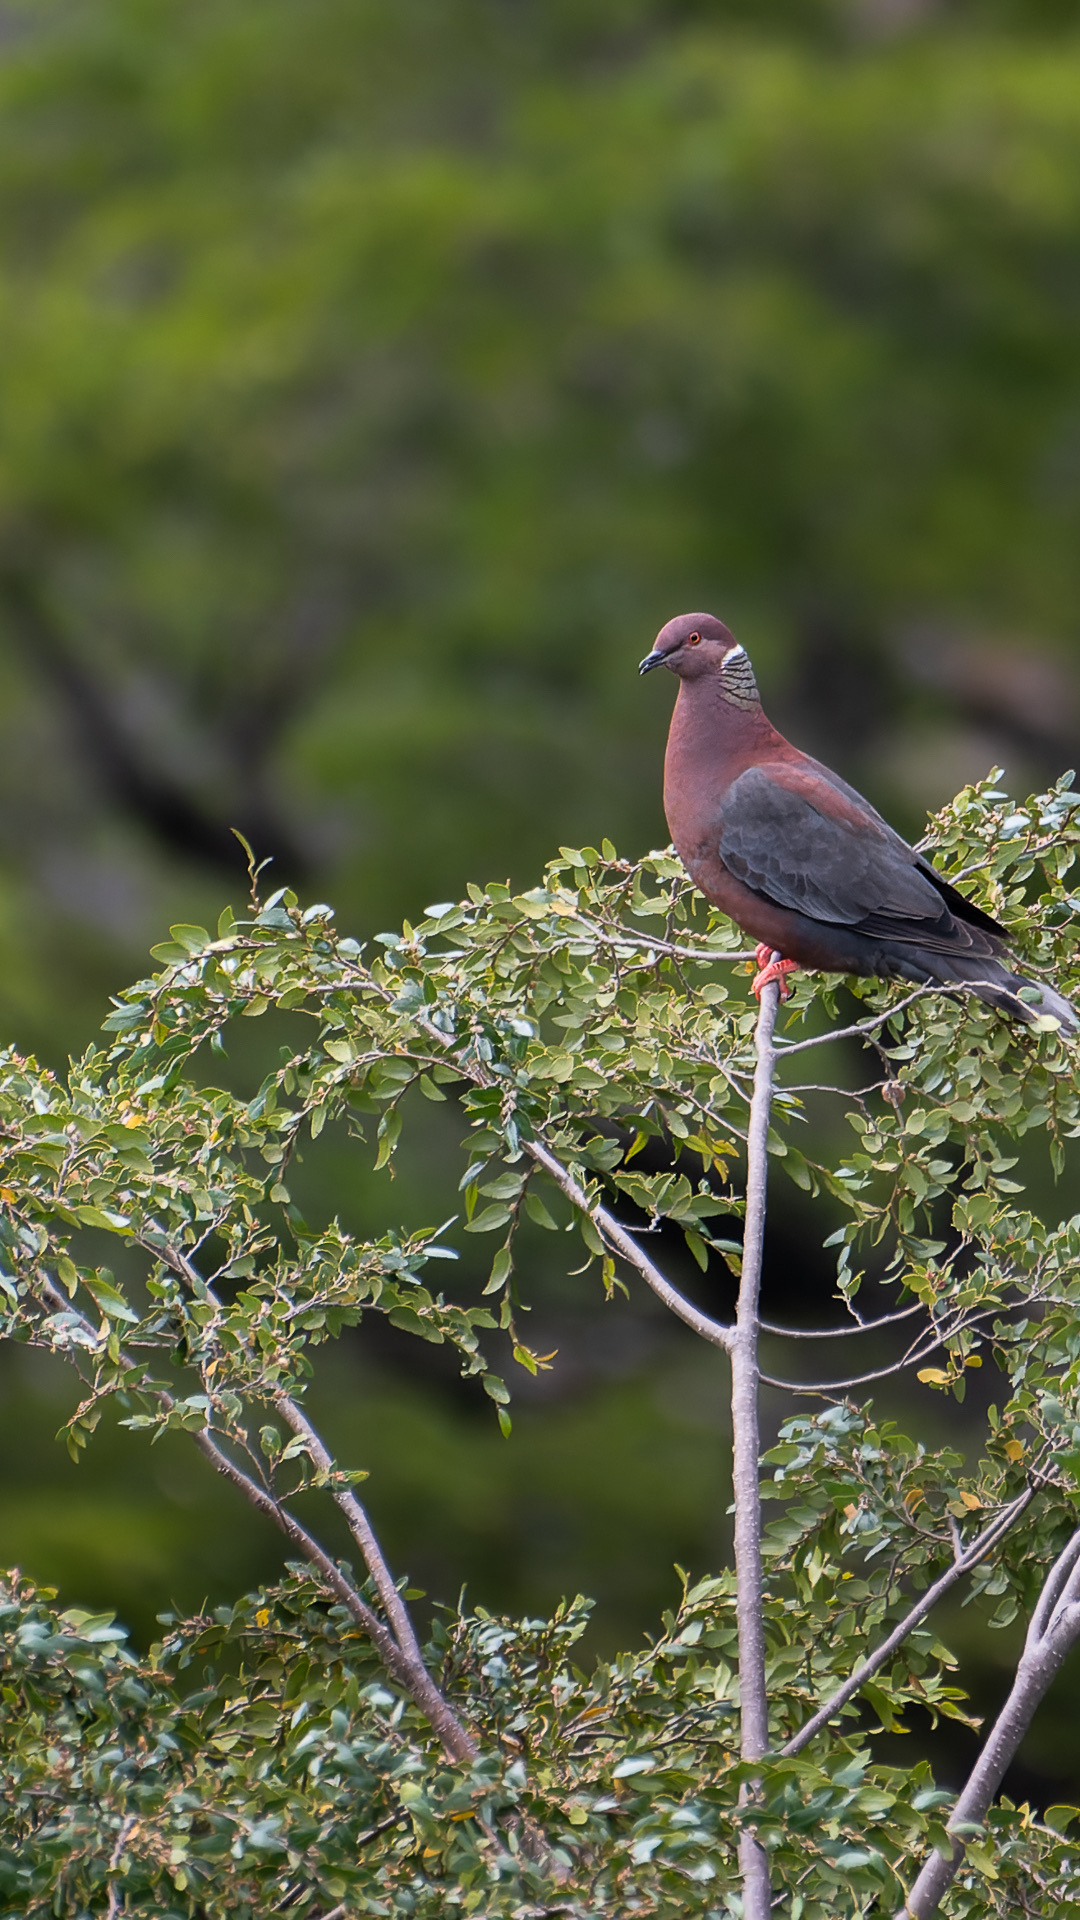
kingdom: Animalia
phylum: Chordata
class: Aves
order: Columbiformes
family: Columbidae
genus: Patagioenas
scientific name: Patagioenas araucana
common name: Chilean pigeon
